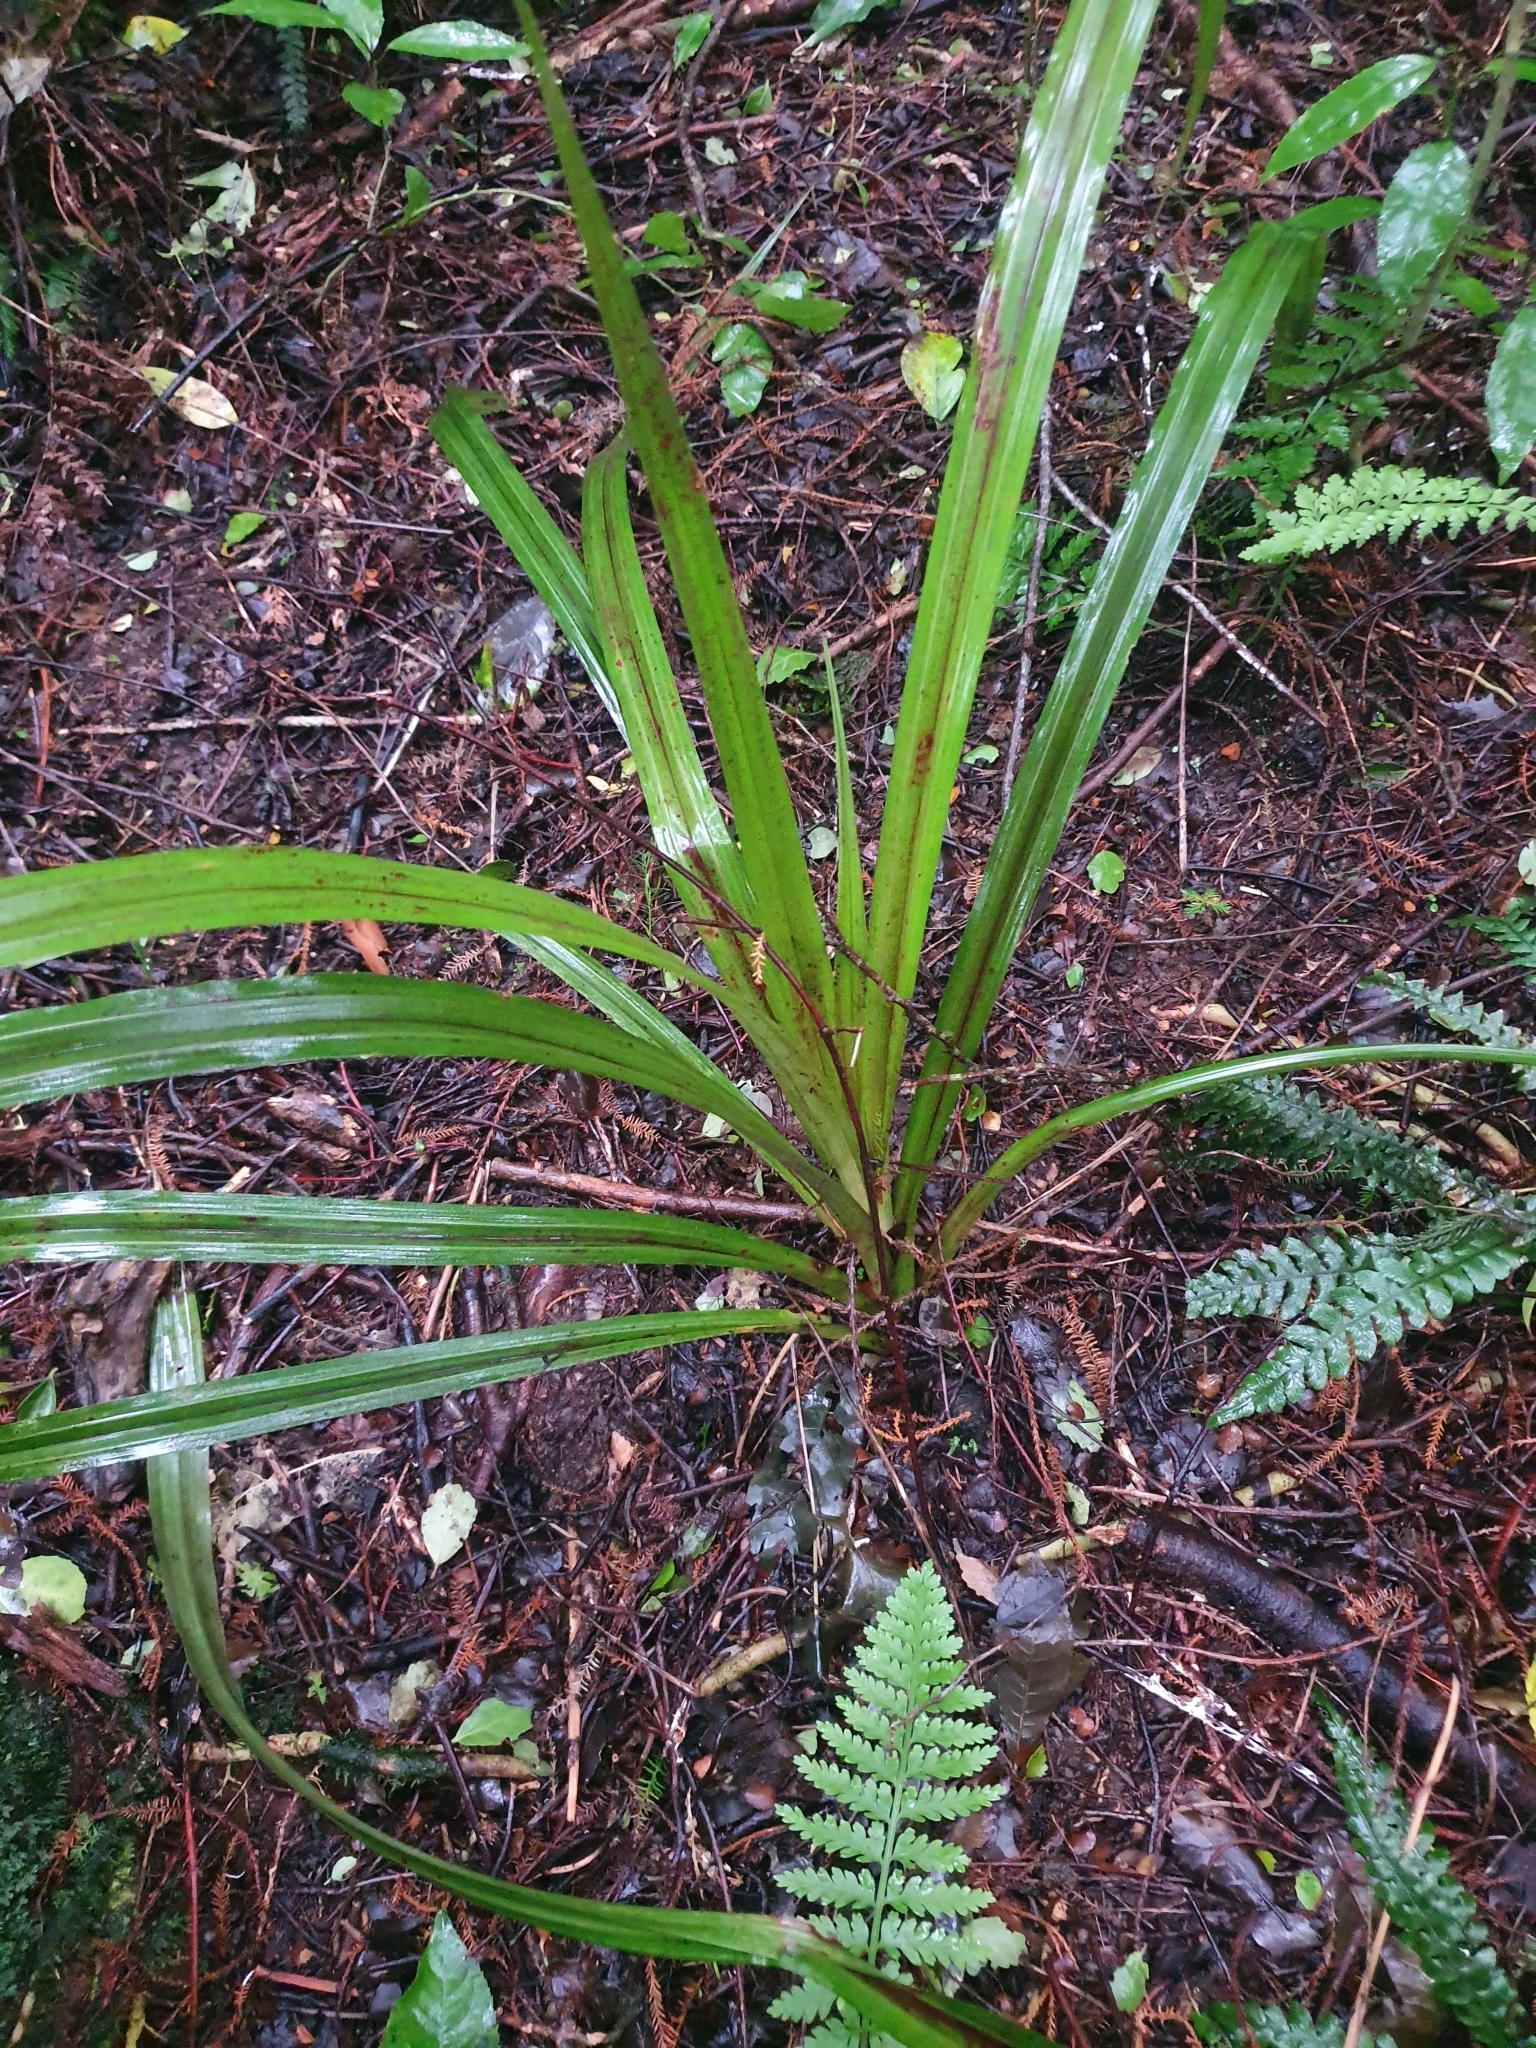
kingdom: Plantae
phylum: Tracheophyta
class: Liliopsida
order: Asparagales
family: Asteliaceae
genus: Astelia
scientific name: Astelia fragrans
